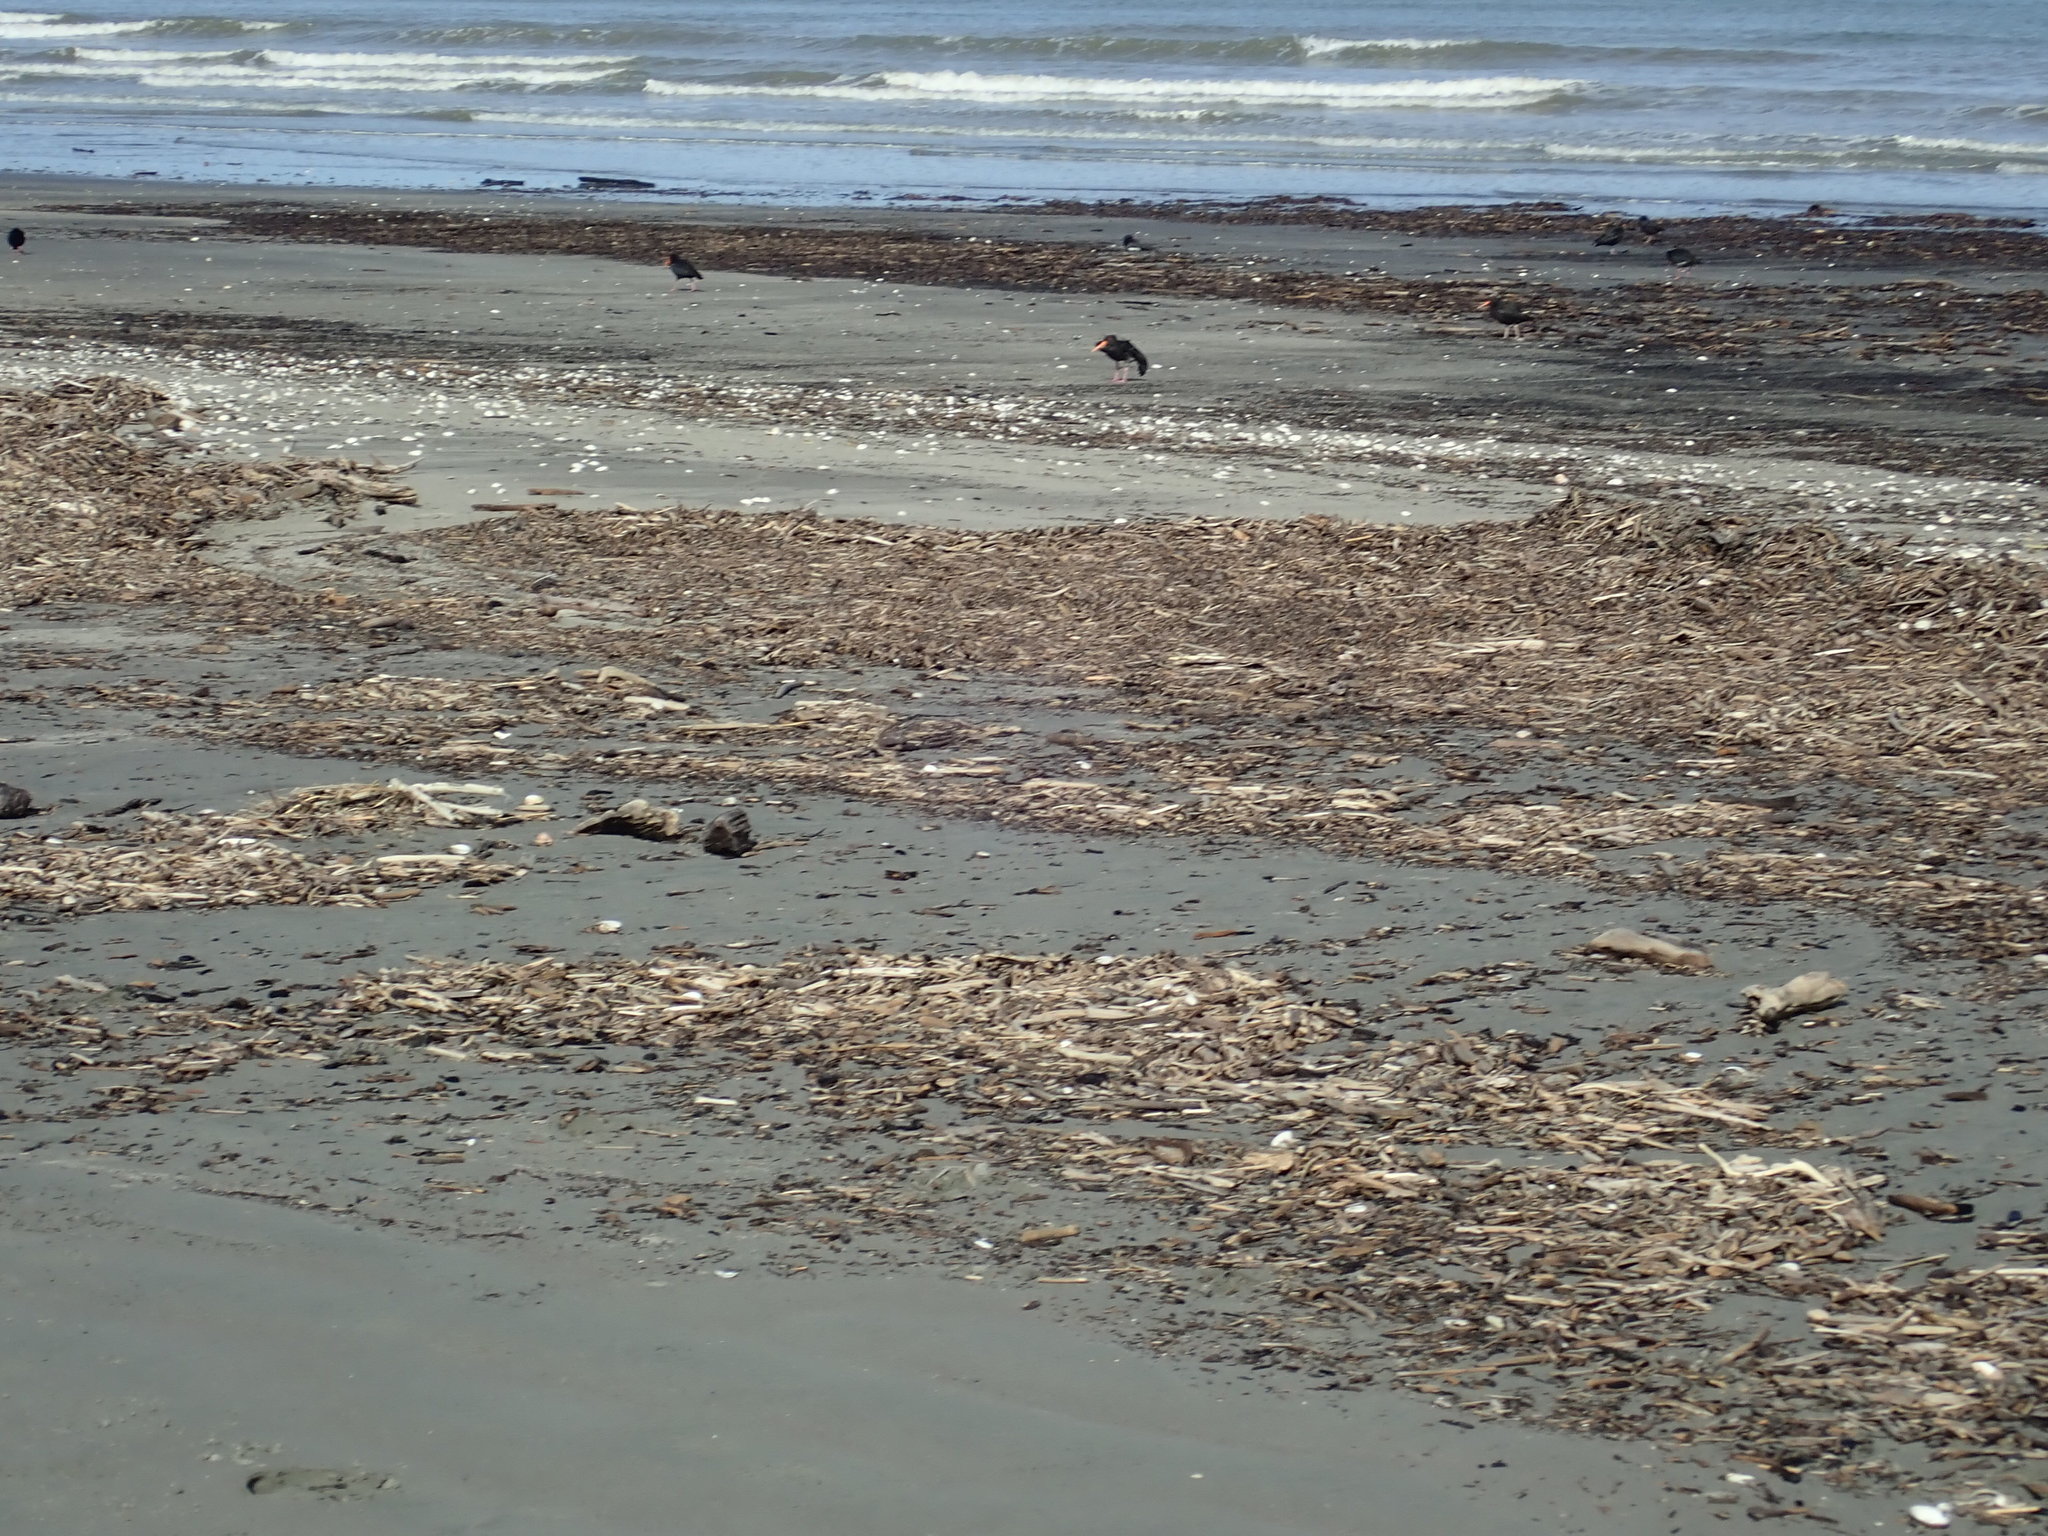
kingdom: Animalia
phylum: Chordata
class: Aves
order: Charadriiformes
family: Haematopodidae
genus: Haematopus
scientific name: Haematopus unicolor
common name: Variable oystercatcher
